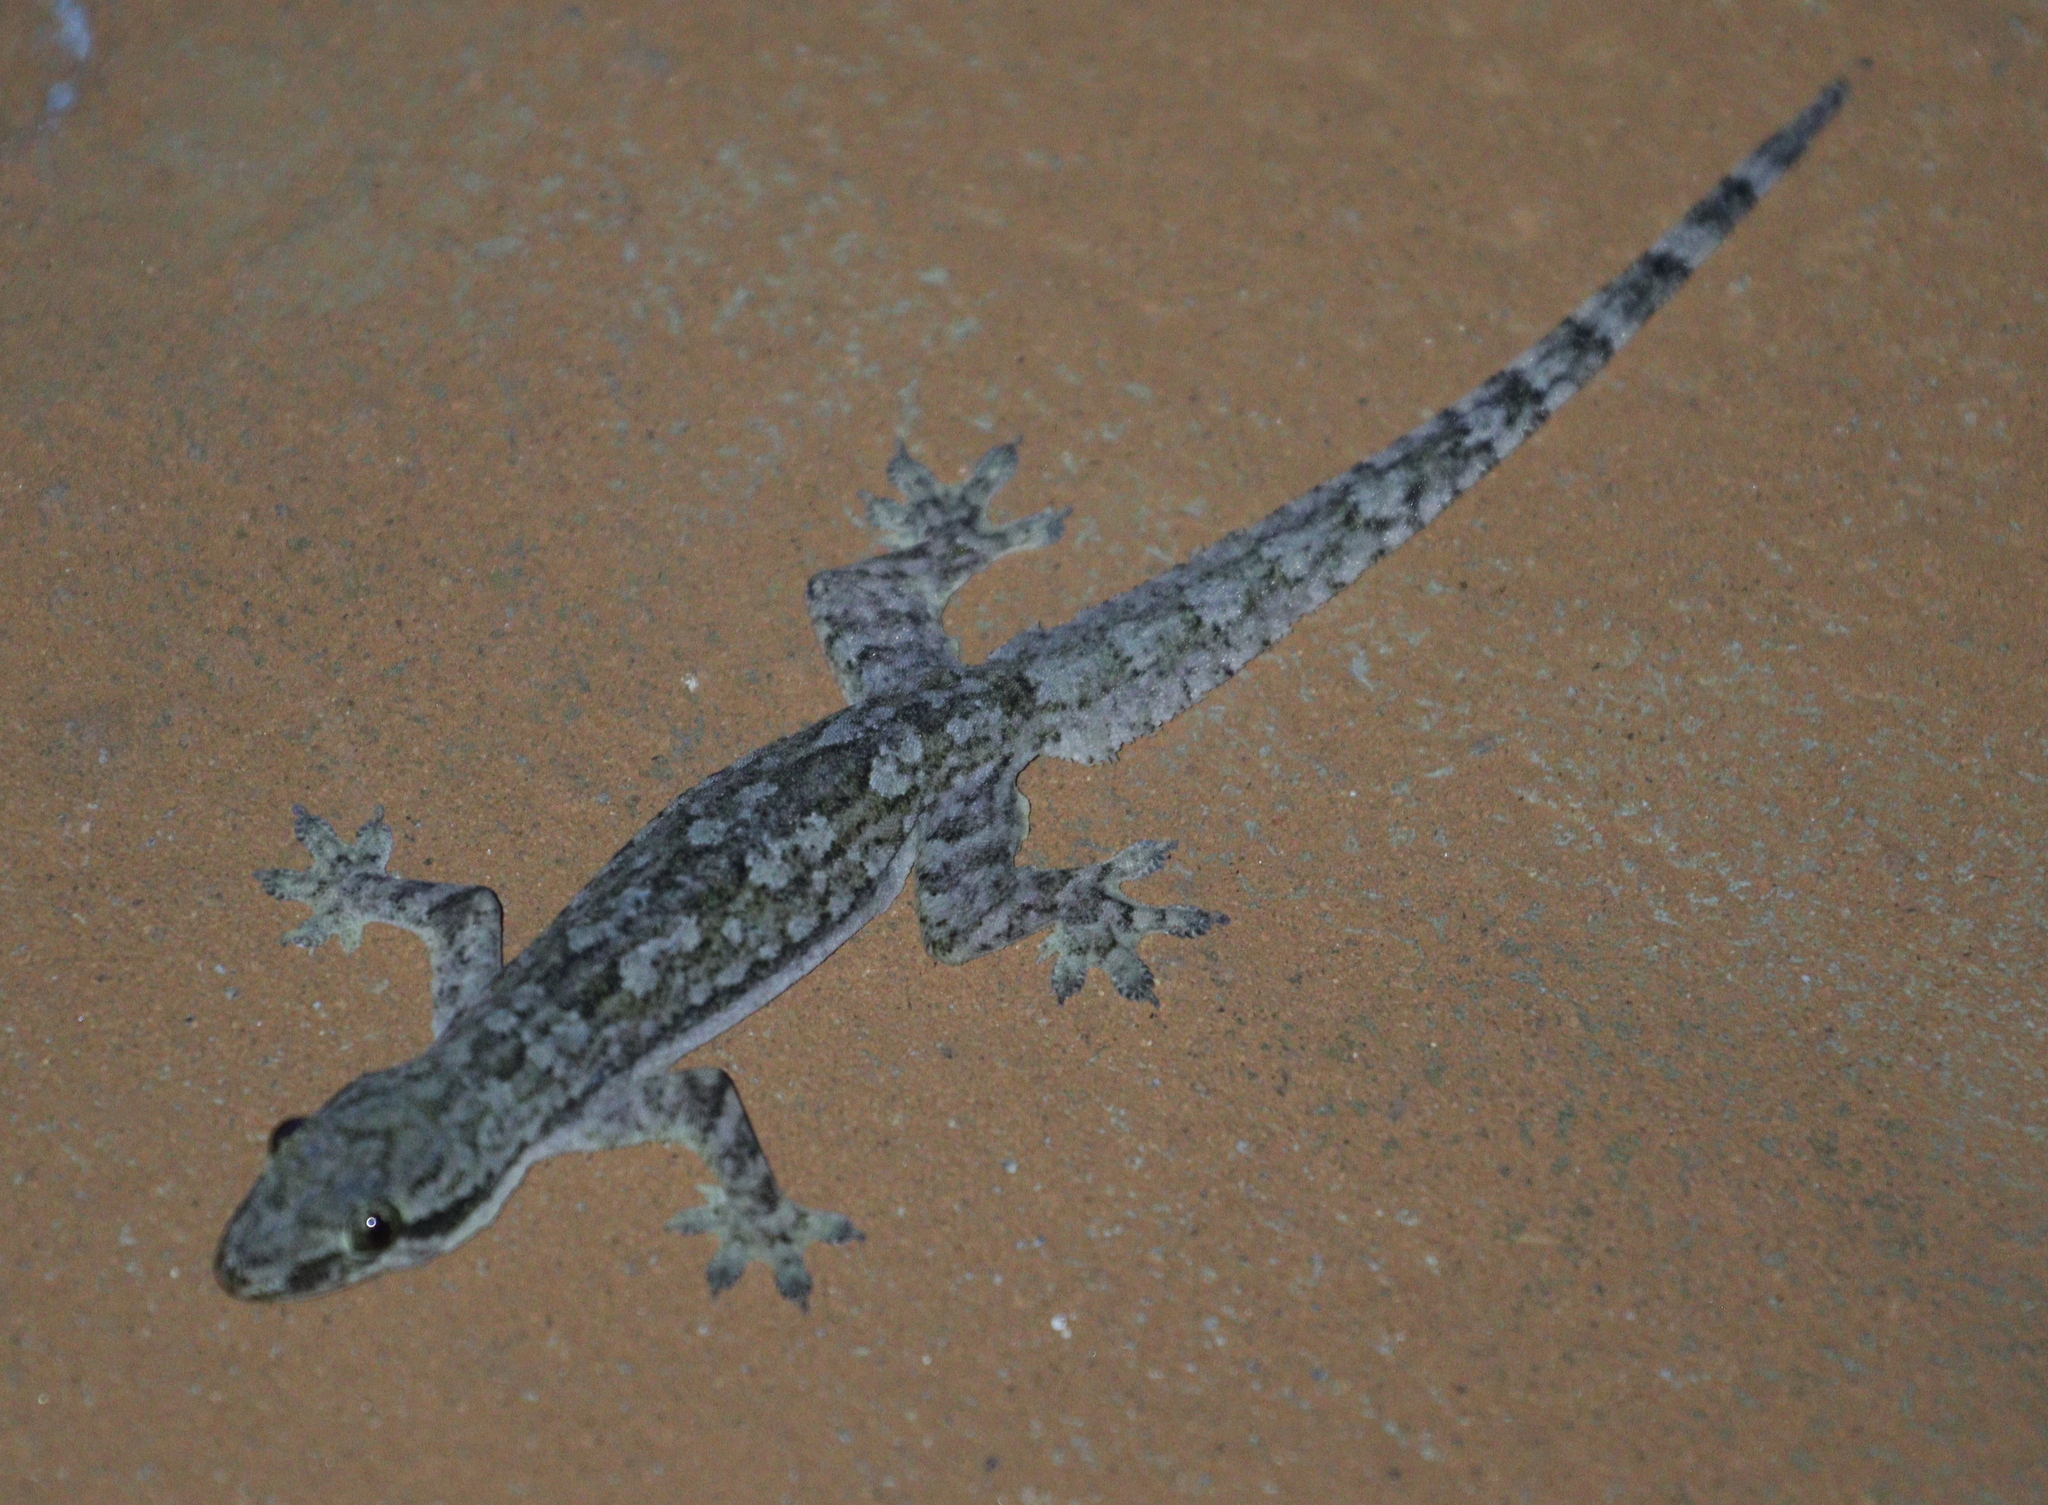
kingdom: Animalia
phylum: Chordata
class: Squamata
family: Gekkonidae
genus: Hemidactylus
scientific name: Hemidactylus platyurus
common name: Flat-tailed house gecko
